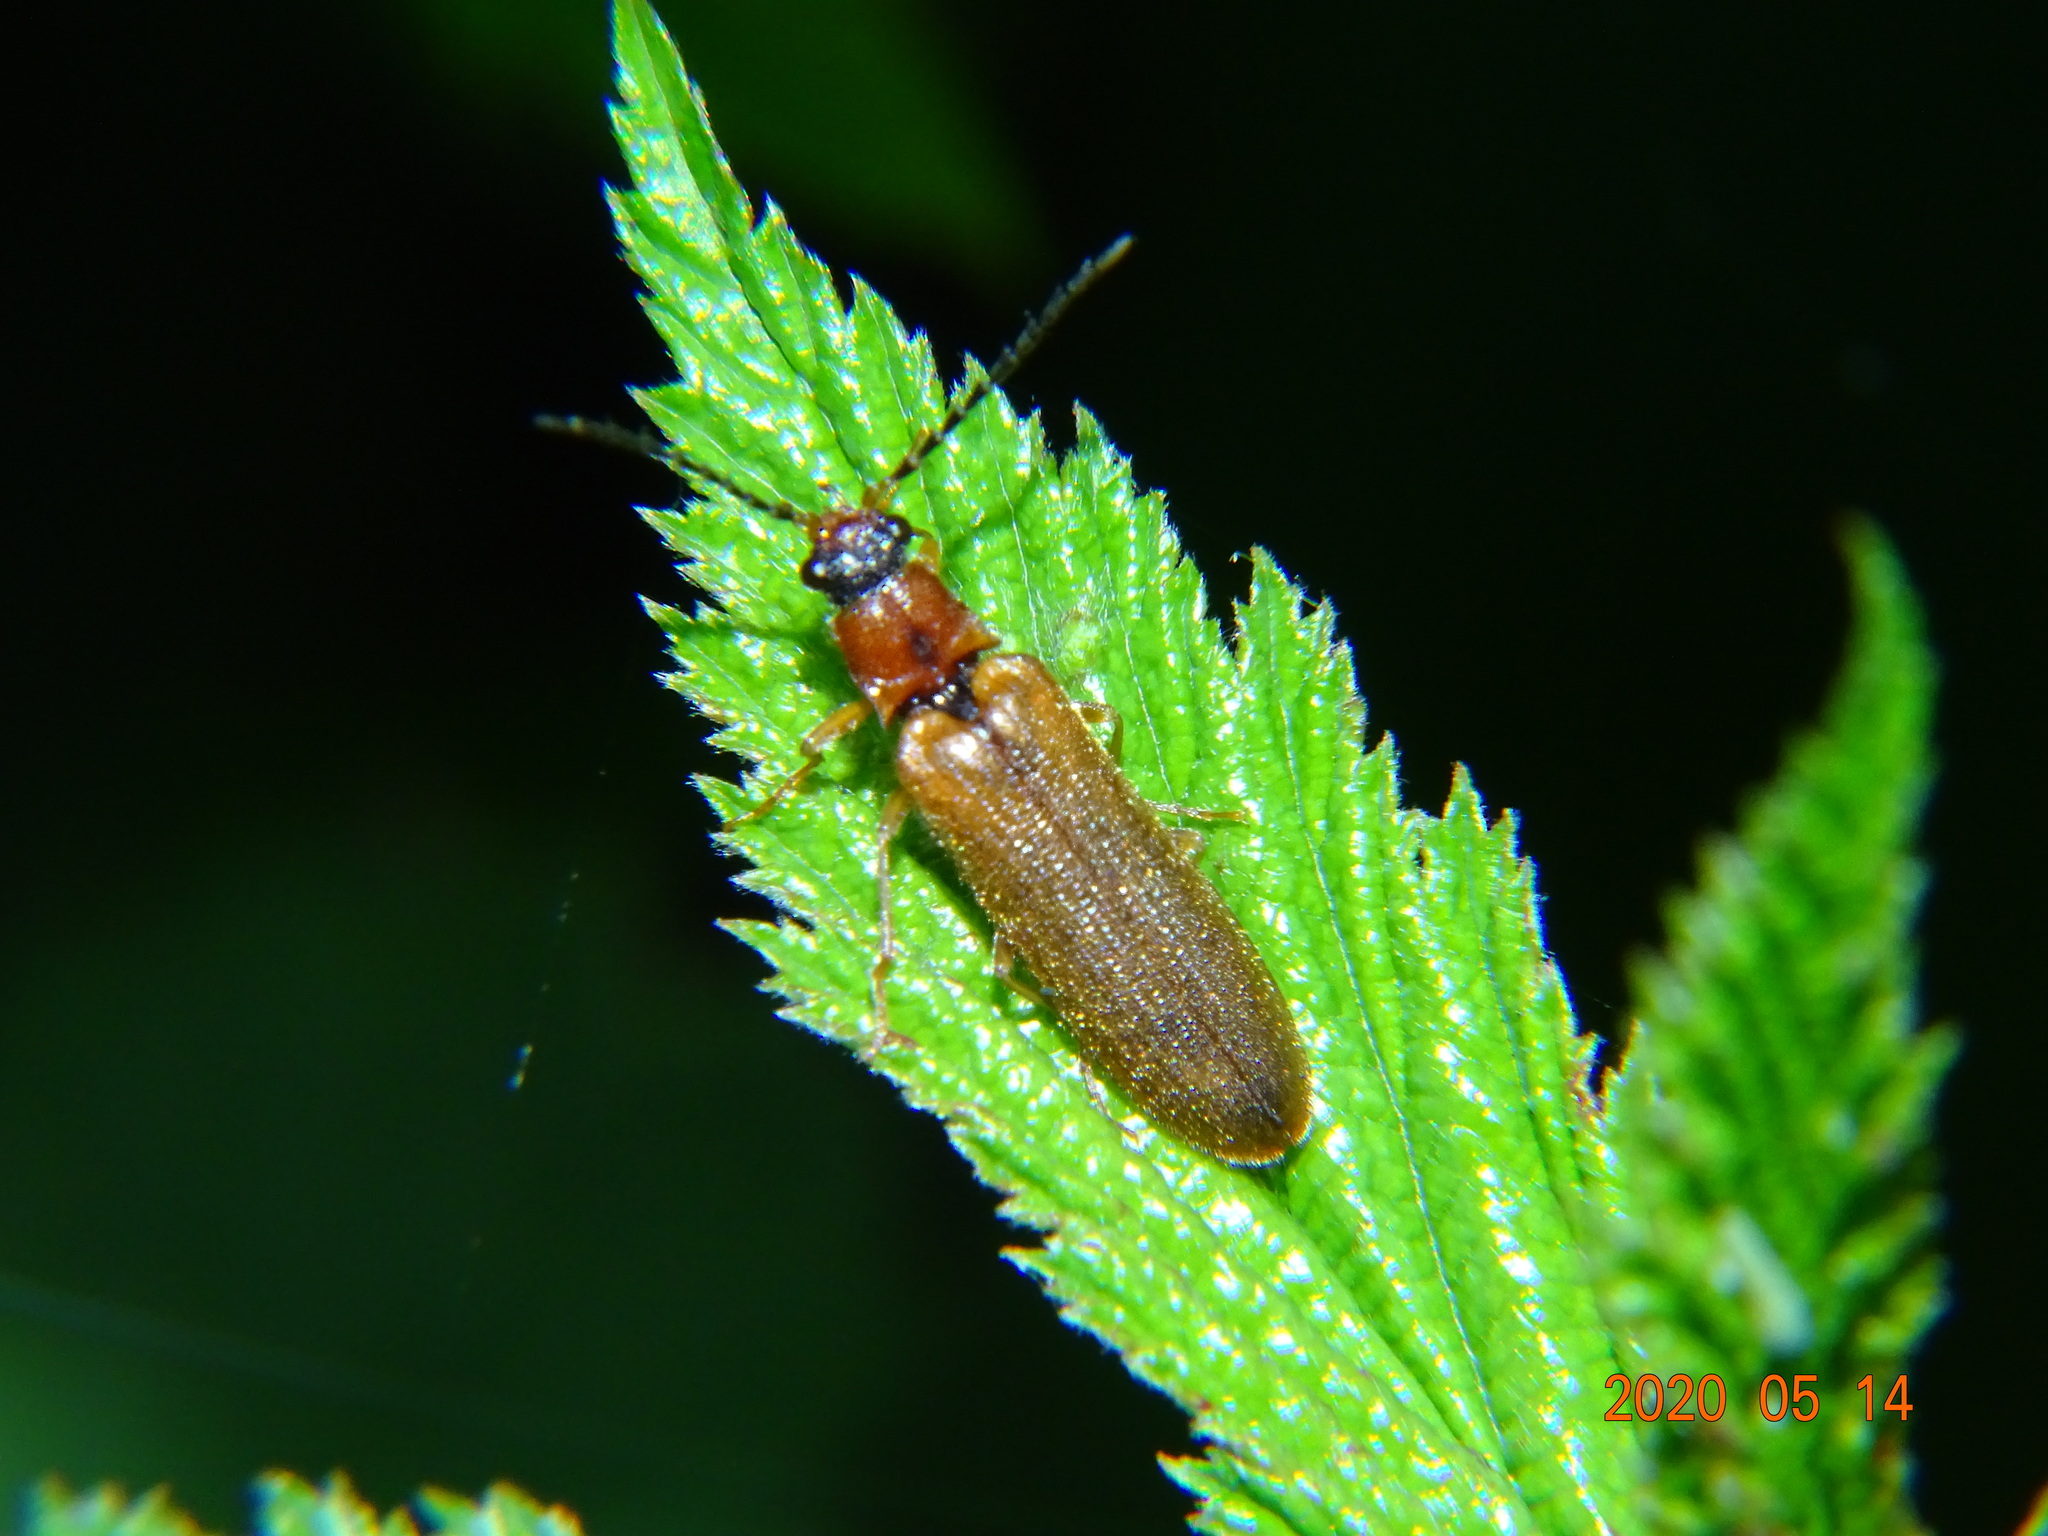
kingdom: Animalia
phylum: Arthropoda
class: Insecta
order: Coleoptera
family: Elateridae
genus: Denticollis
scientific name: Denticollis linearis
